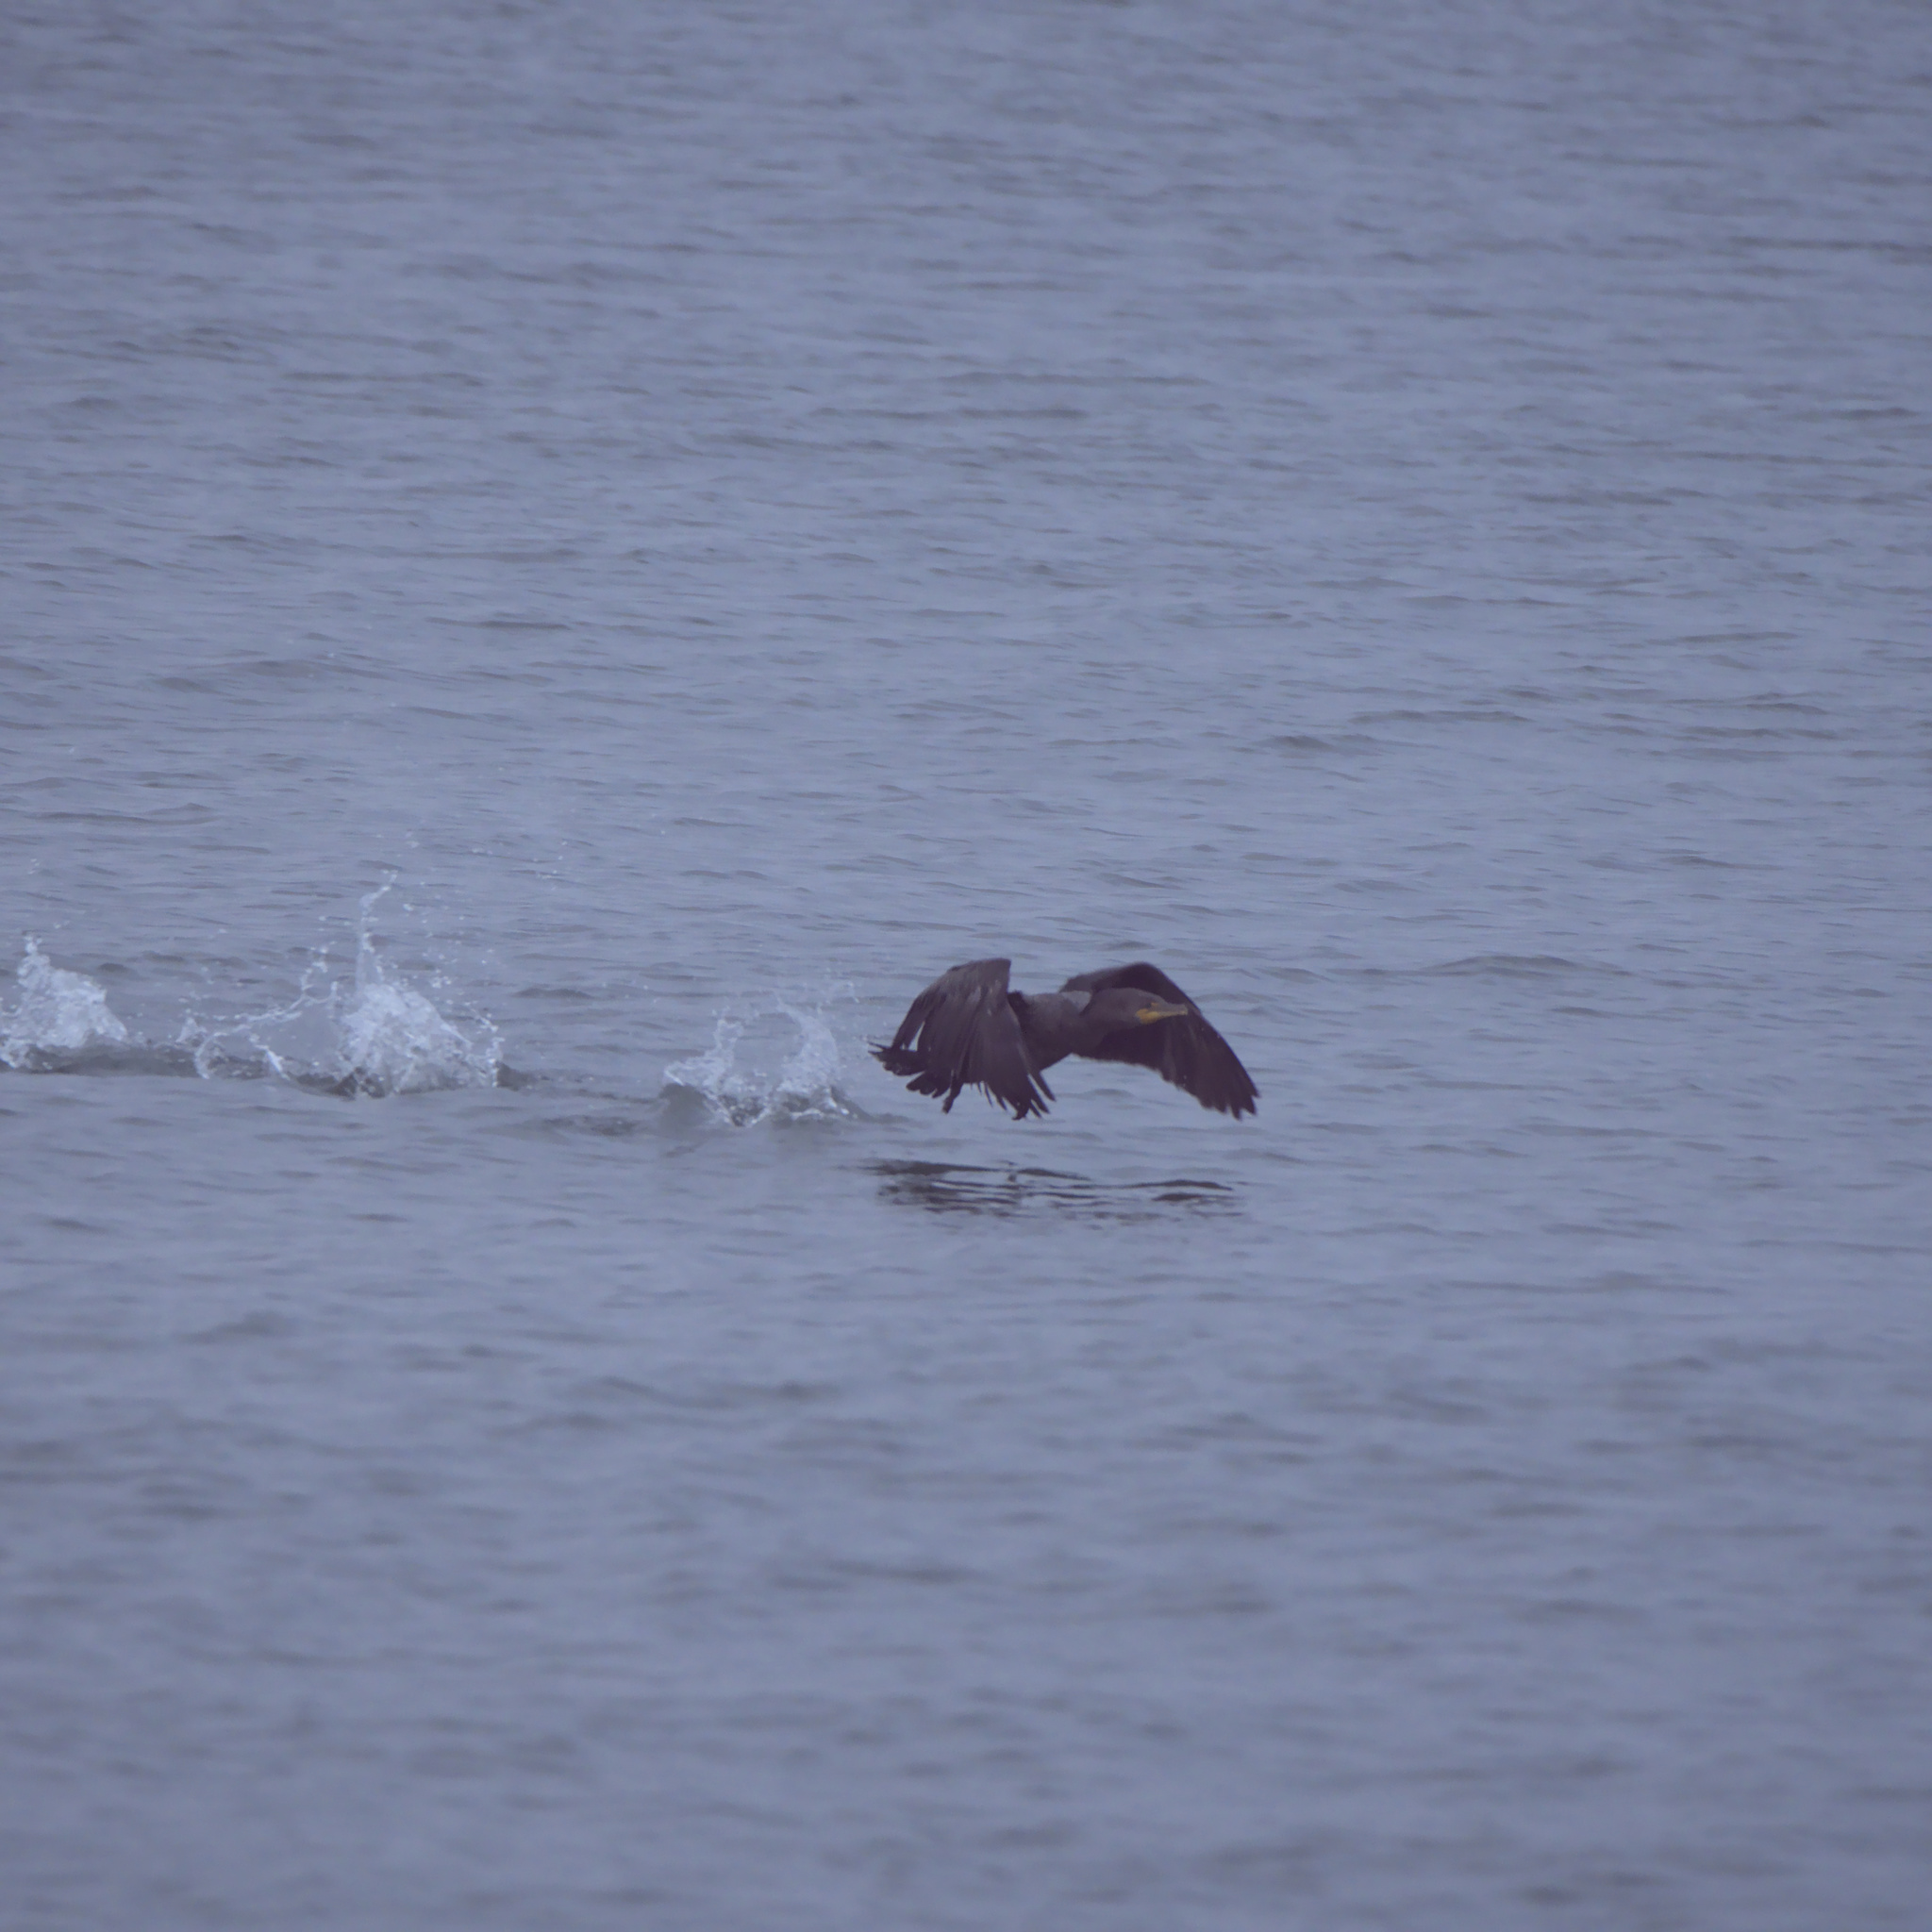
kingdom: Animalia
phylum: Chordata
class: Aves
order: Suliformes
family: Phalacrocoracidae
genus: Phalacrocorax
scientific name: Phalacrocorax auritus
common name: Double-crested cormorant
